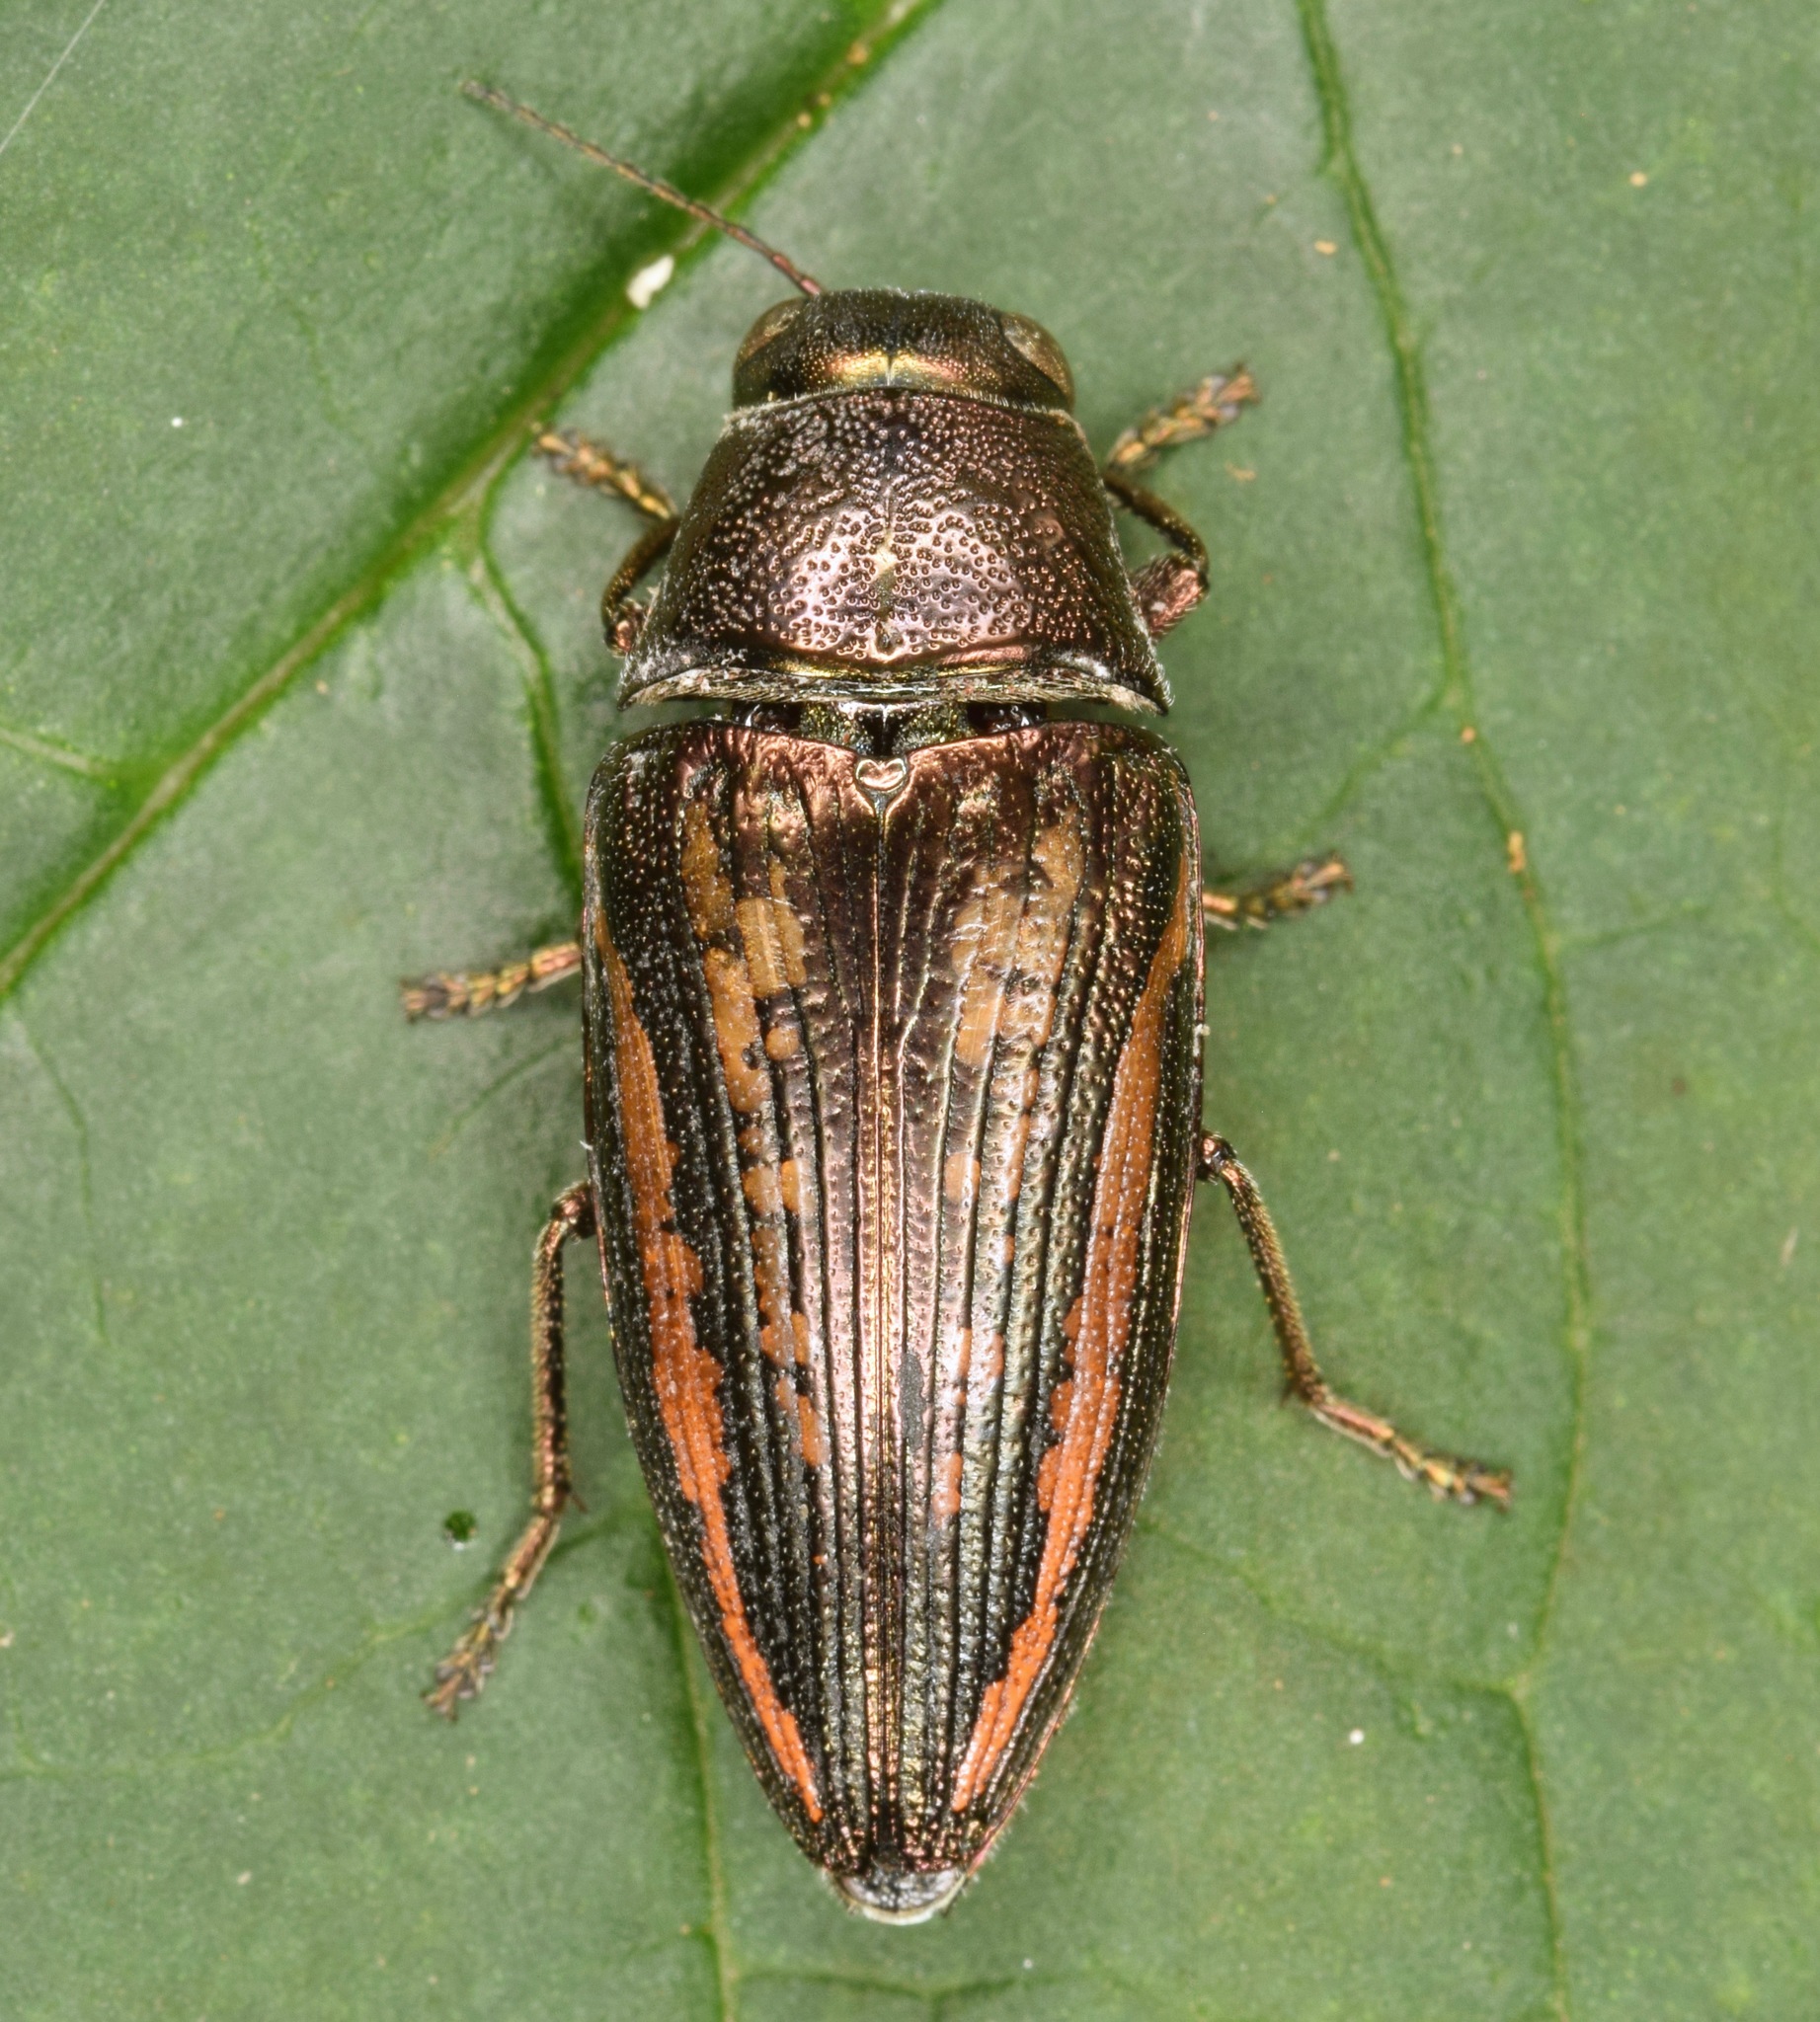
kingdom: Animalia
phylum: Arthropoda
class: Insecta
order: Coleoptera
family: Buprestidae
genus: Buprestis
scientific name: Buprestis lineata
